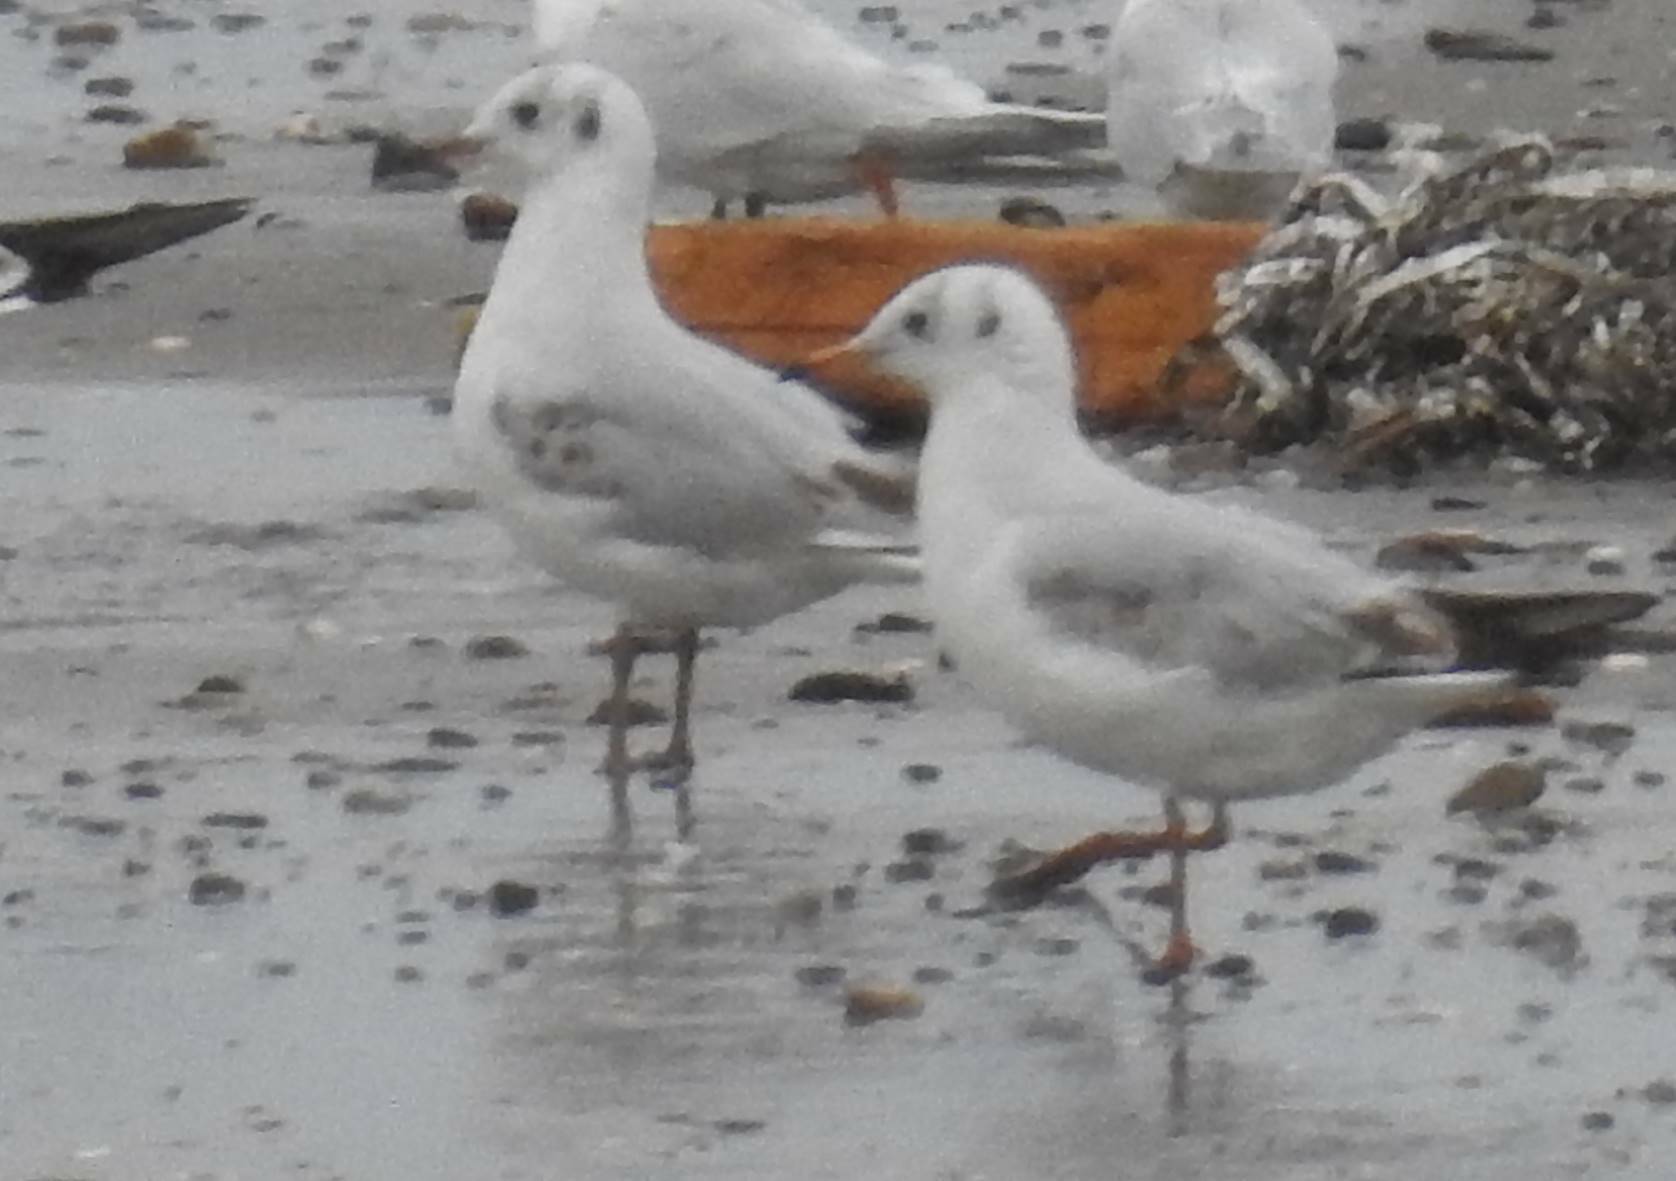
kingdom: Animalia
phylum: Chordata
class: Aves
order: Charadriiformes
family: Laridae
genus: Chroicocephalus
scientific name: Chroicocephalus ridibundus
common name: Black-headed gull
